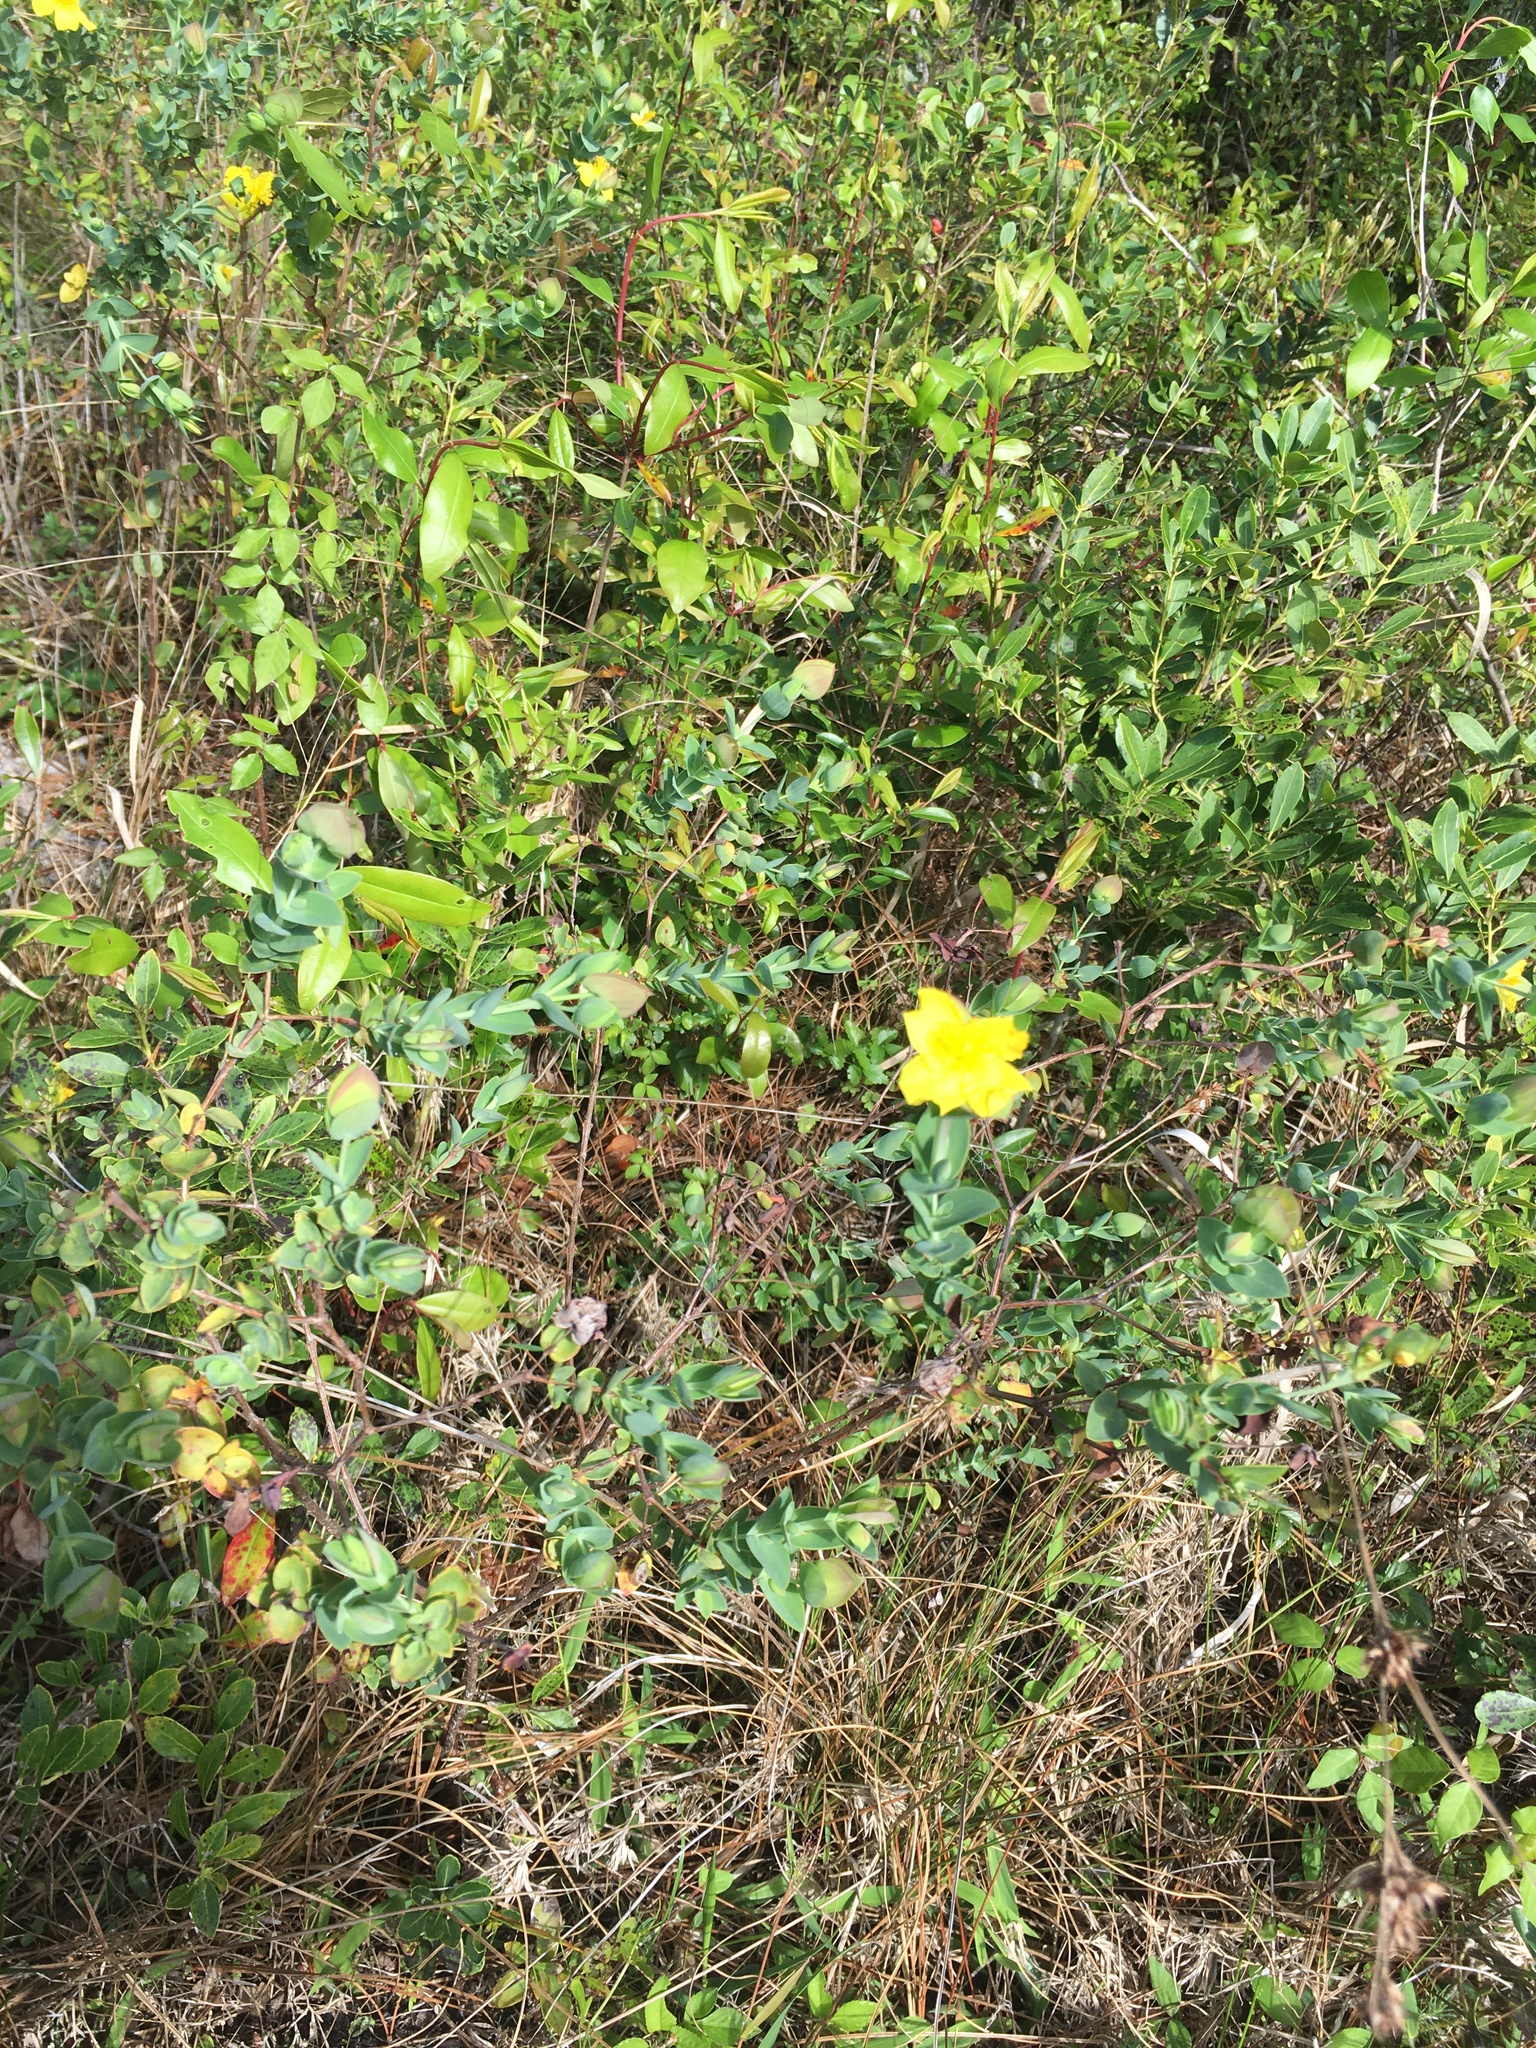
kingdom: Plantae
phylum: Tracheophyta
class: Magnoliopsida
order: Malpighiales
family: Hypericaceae
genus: Hypericum
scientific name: Hypericum tetrapetalum
